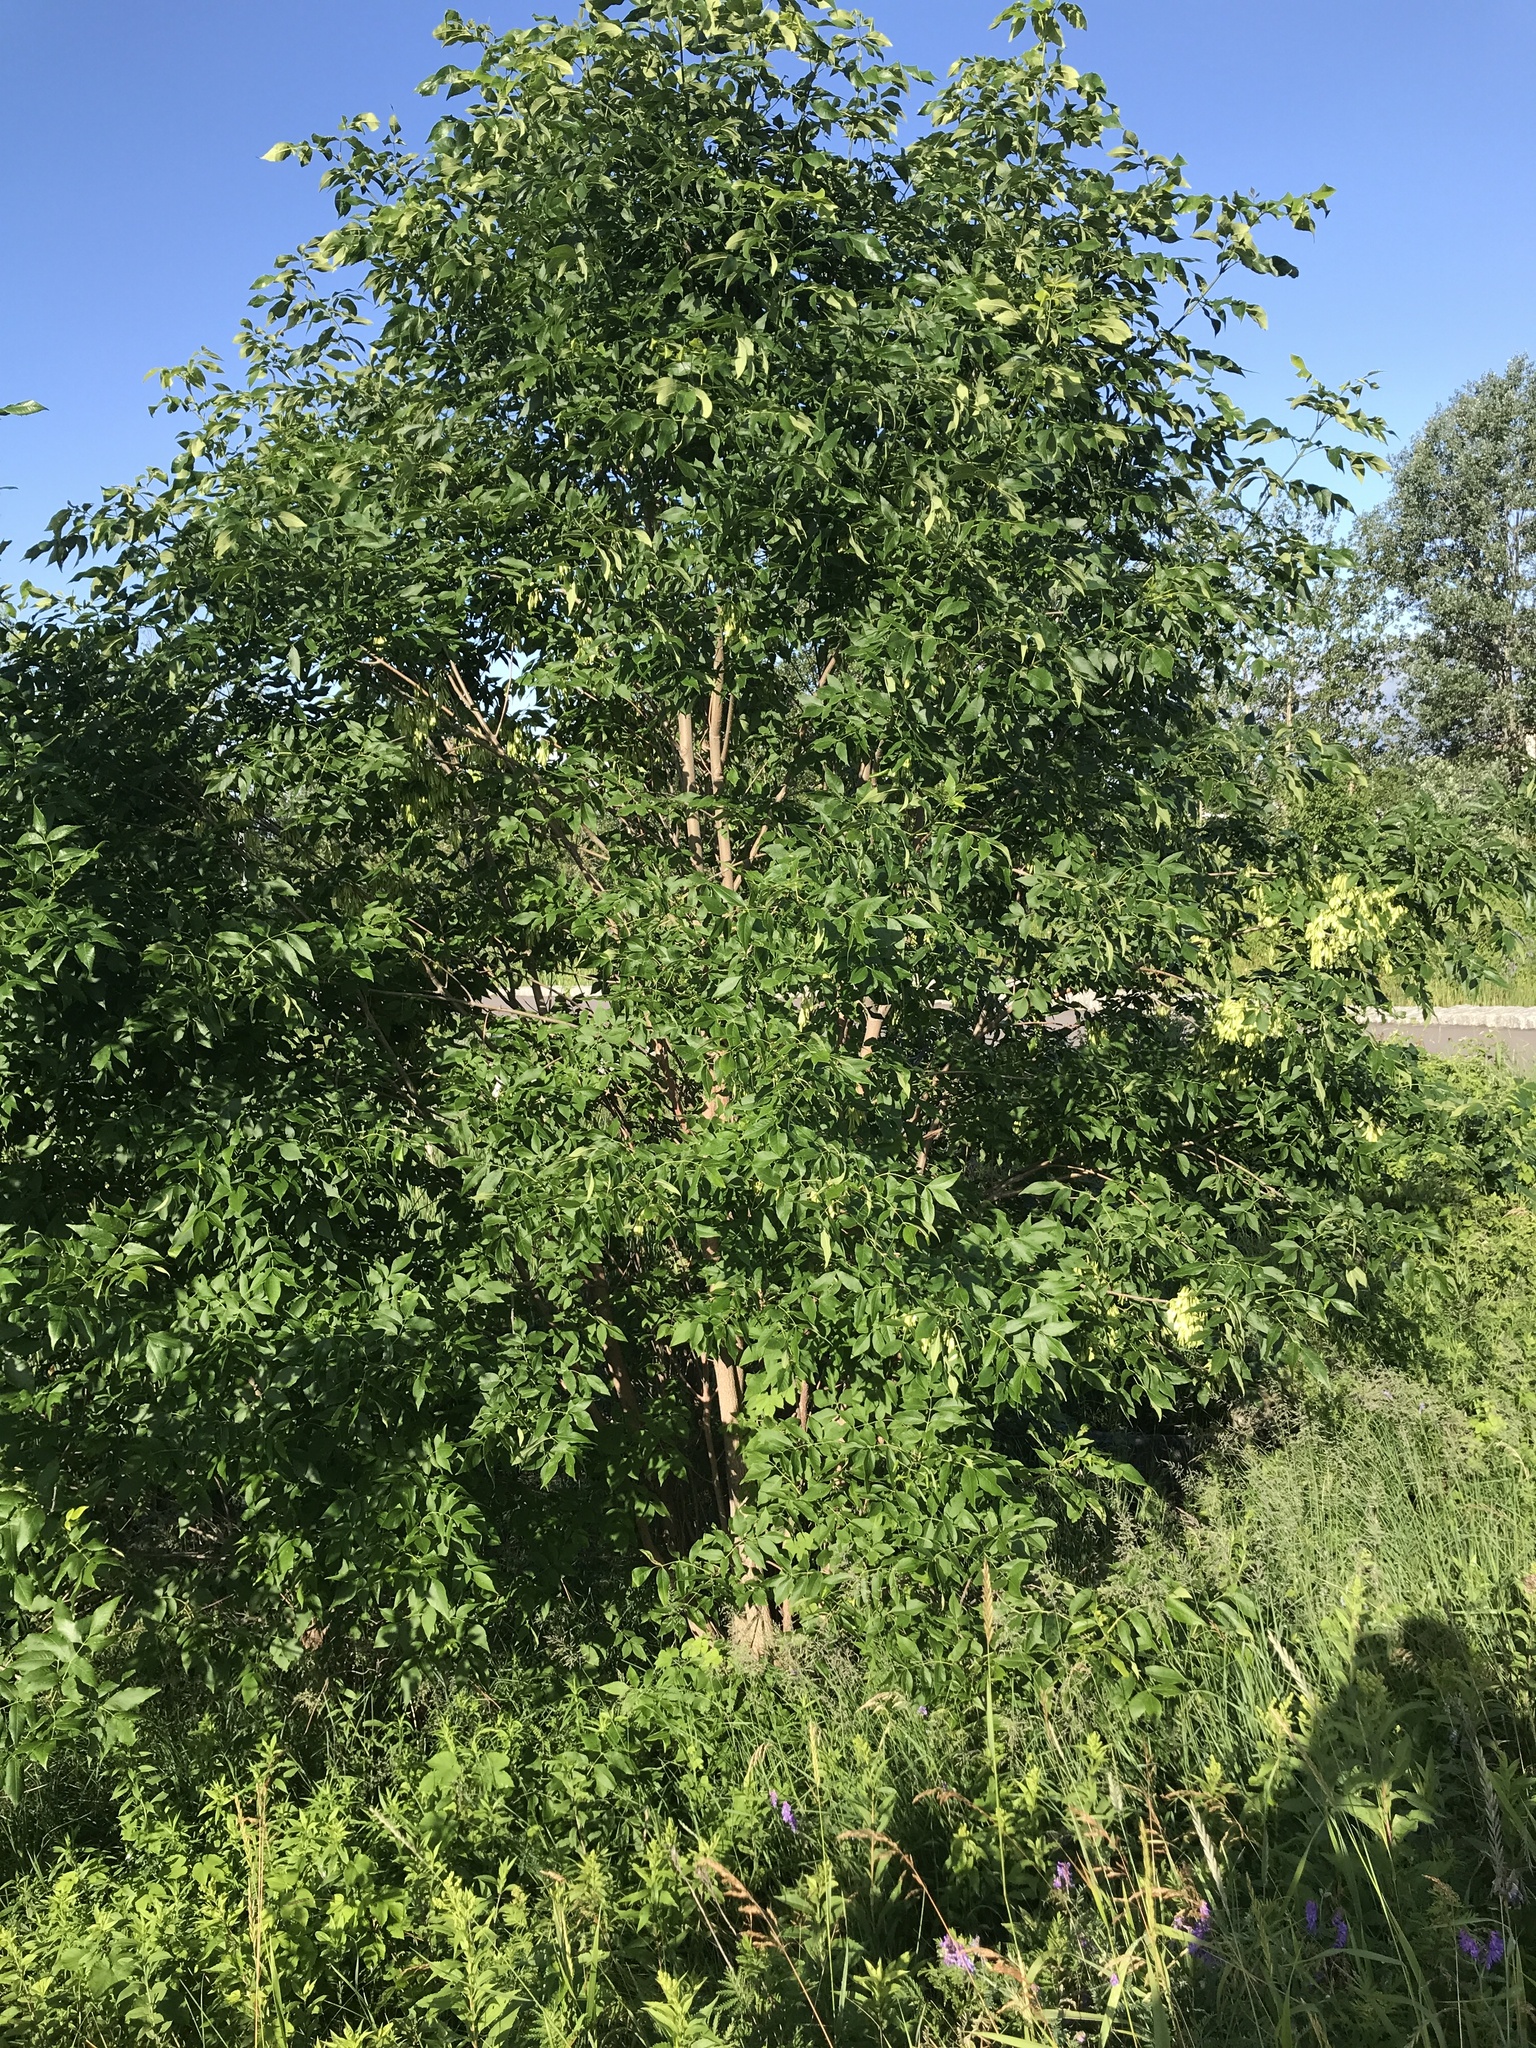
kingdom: Plantae
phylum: Tracheophyta
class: Magnoliopsida
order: Lamiales
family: Oleaceae
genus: Fraxinus
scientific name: Fraxinus pennsylvanica
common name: Green ash
